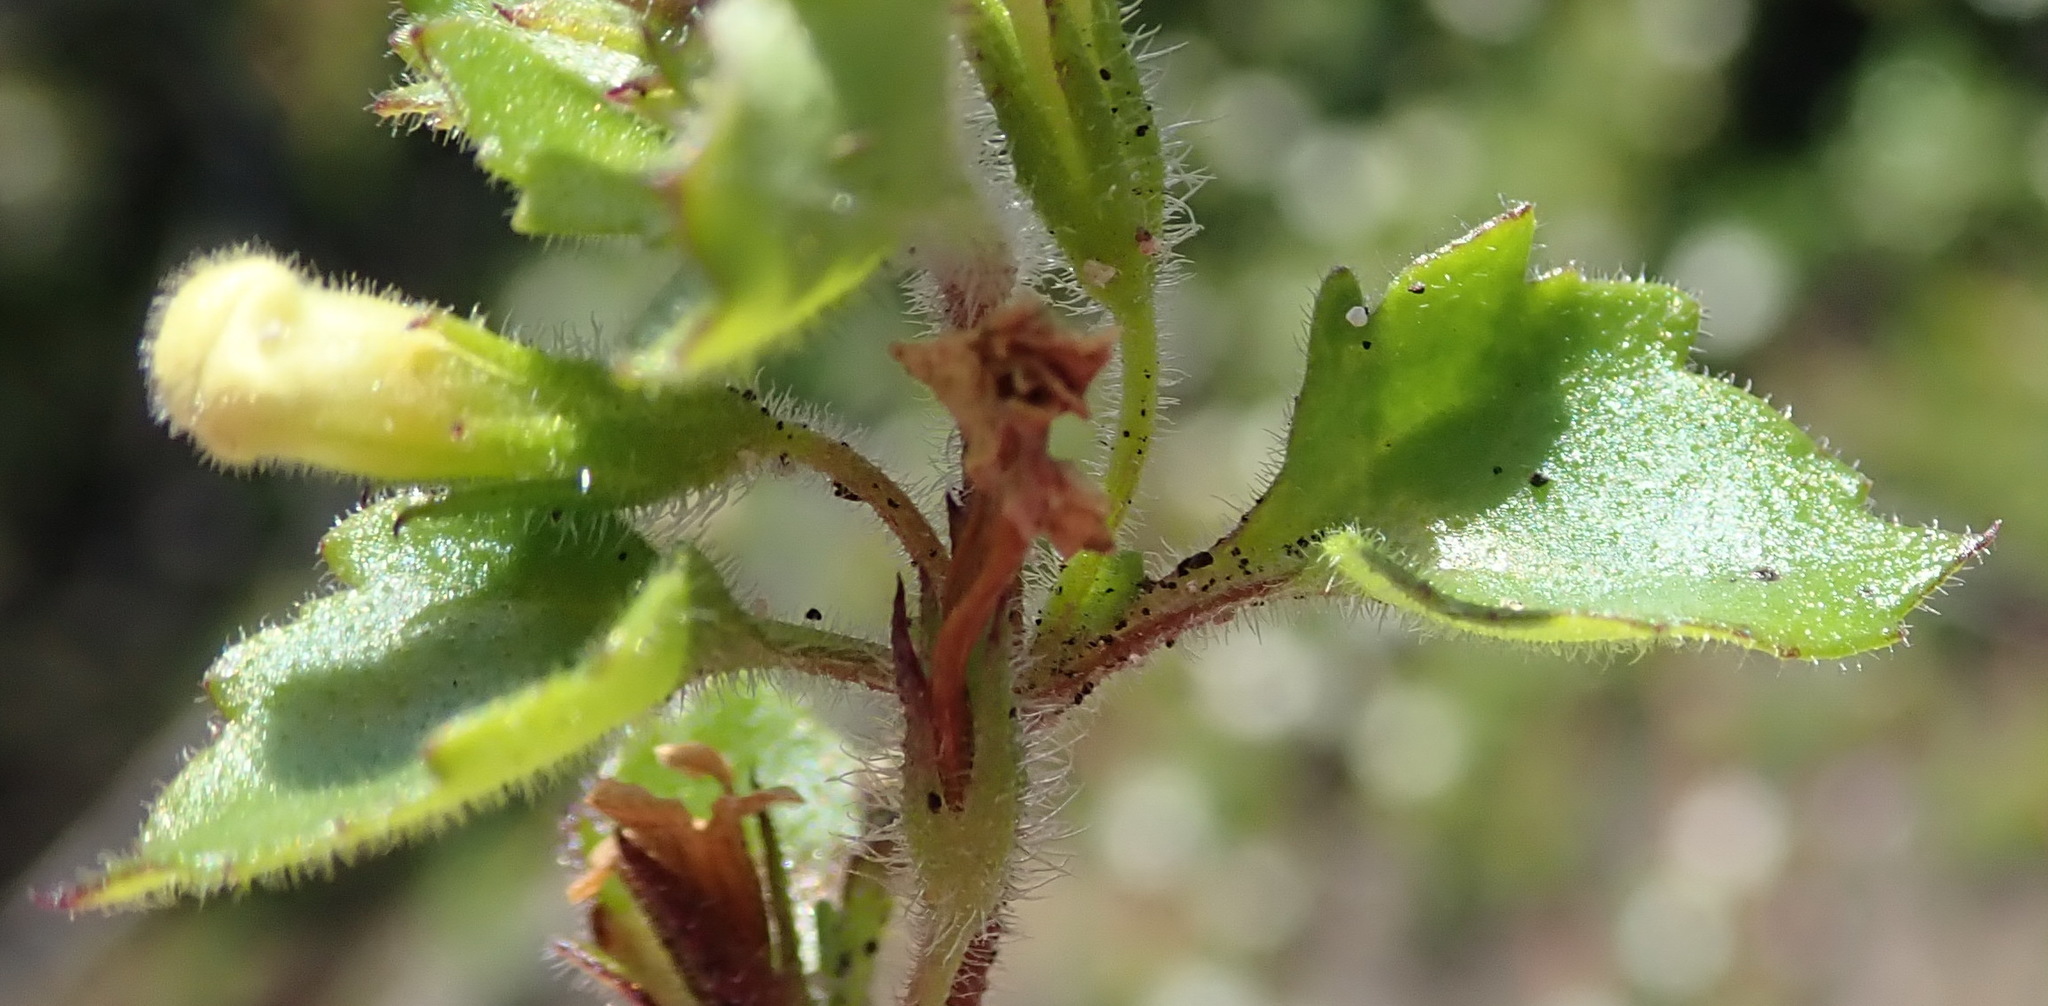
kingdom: Plantae
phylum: Tracheophyta
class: Magnoliopsida
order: Lamiales
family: Scrophulariaceae
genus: Chaenostoma
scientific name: Chaenostoma campanulatum
